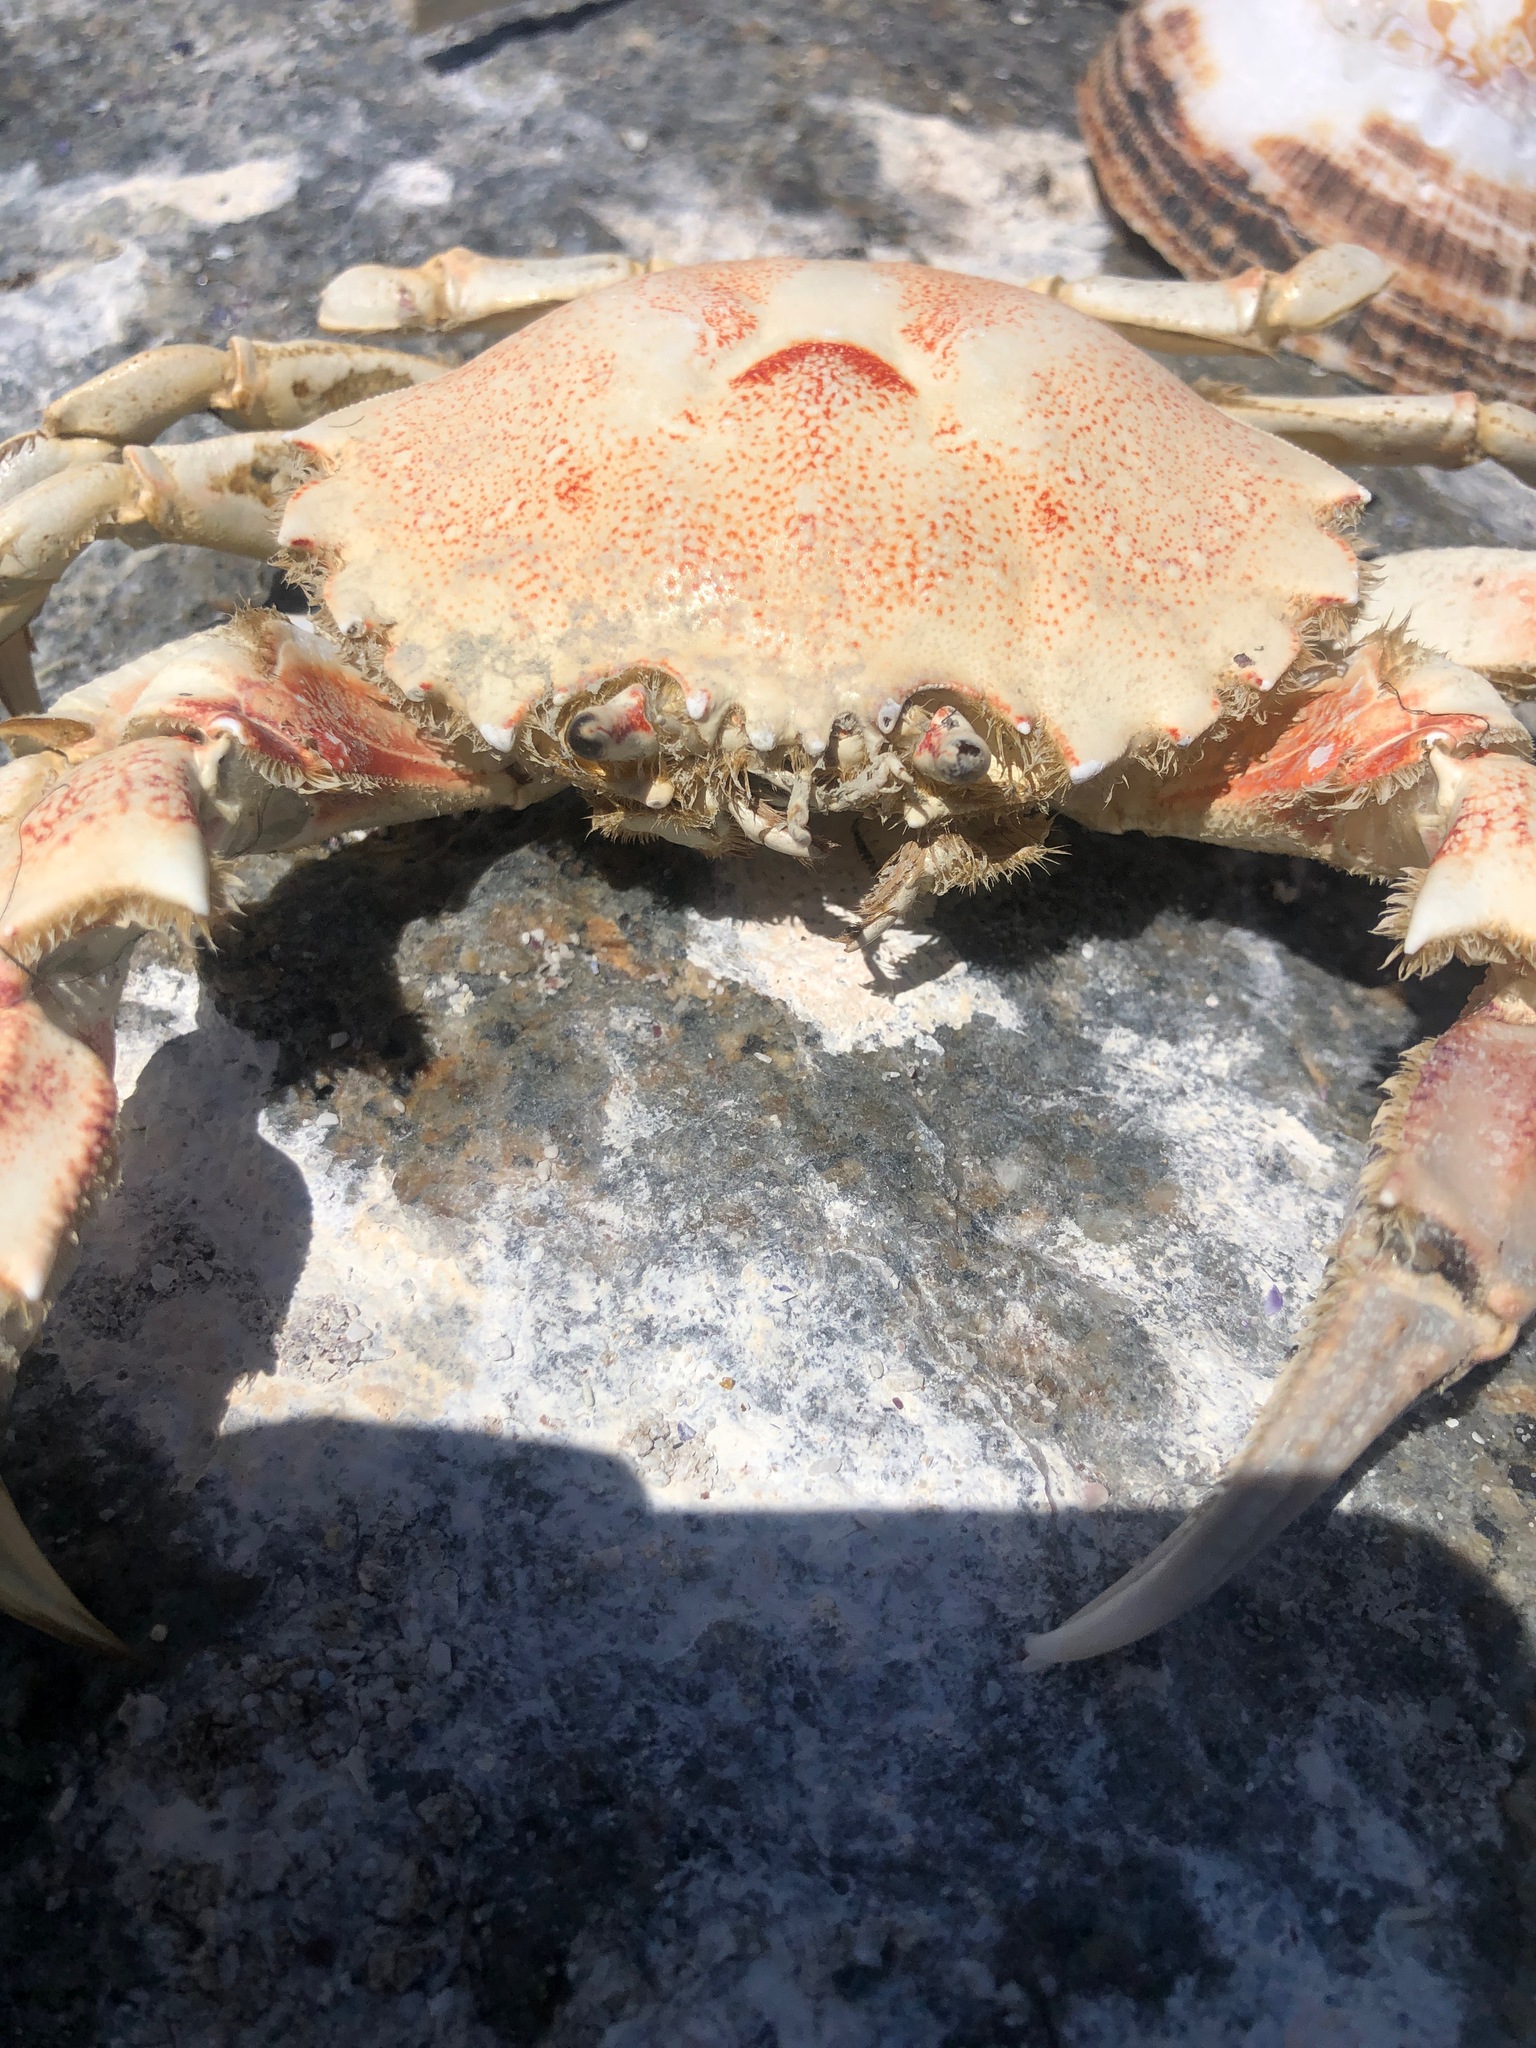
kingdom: Animalia
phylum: Arthropoda
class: Malacostraca
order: Decapoda
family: Ovalipidae
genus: Ovalipes
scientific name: Ovalipes trimaculatus
